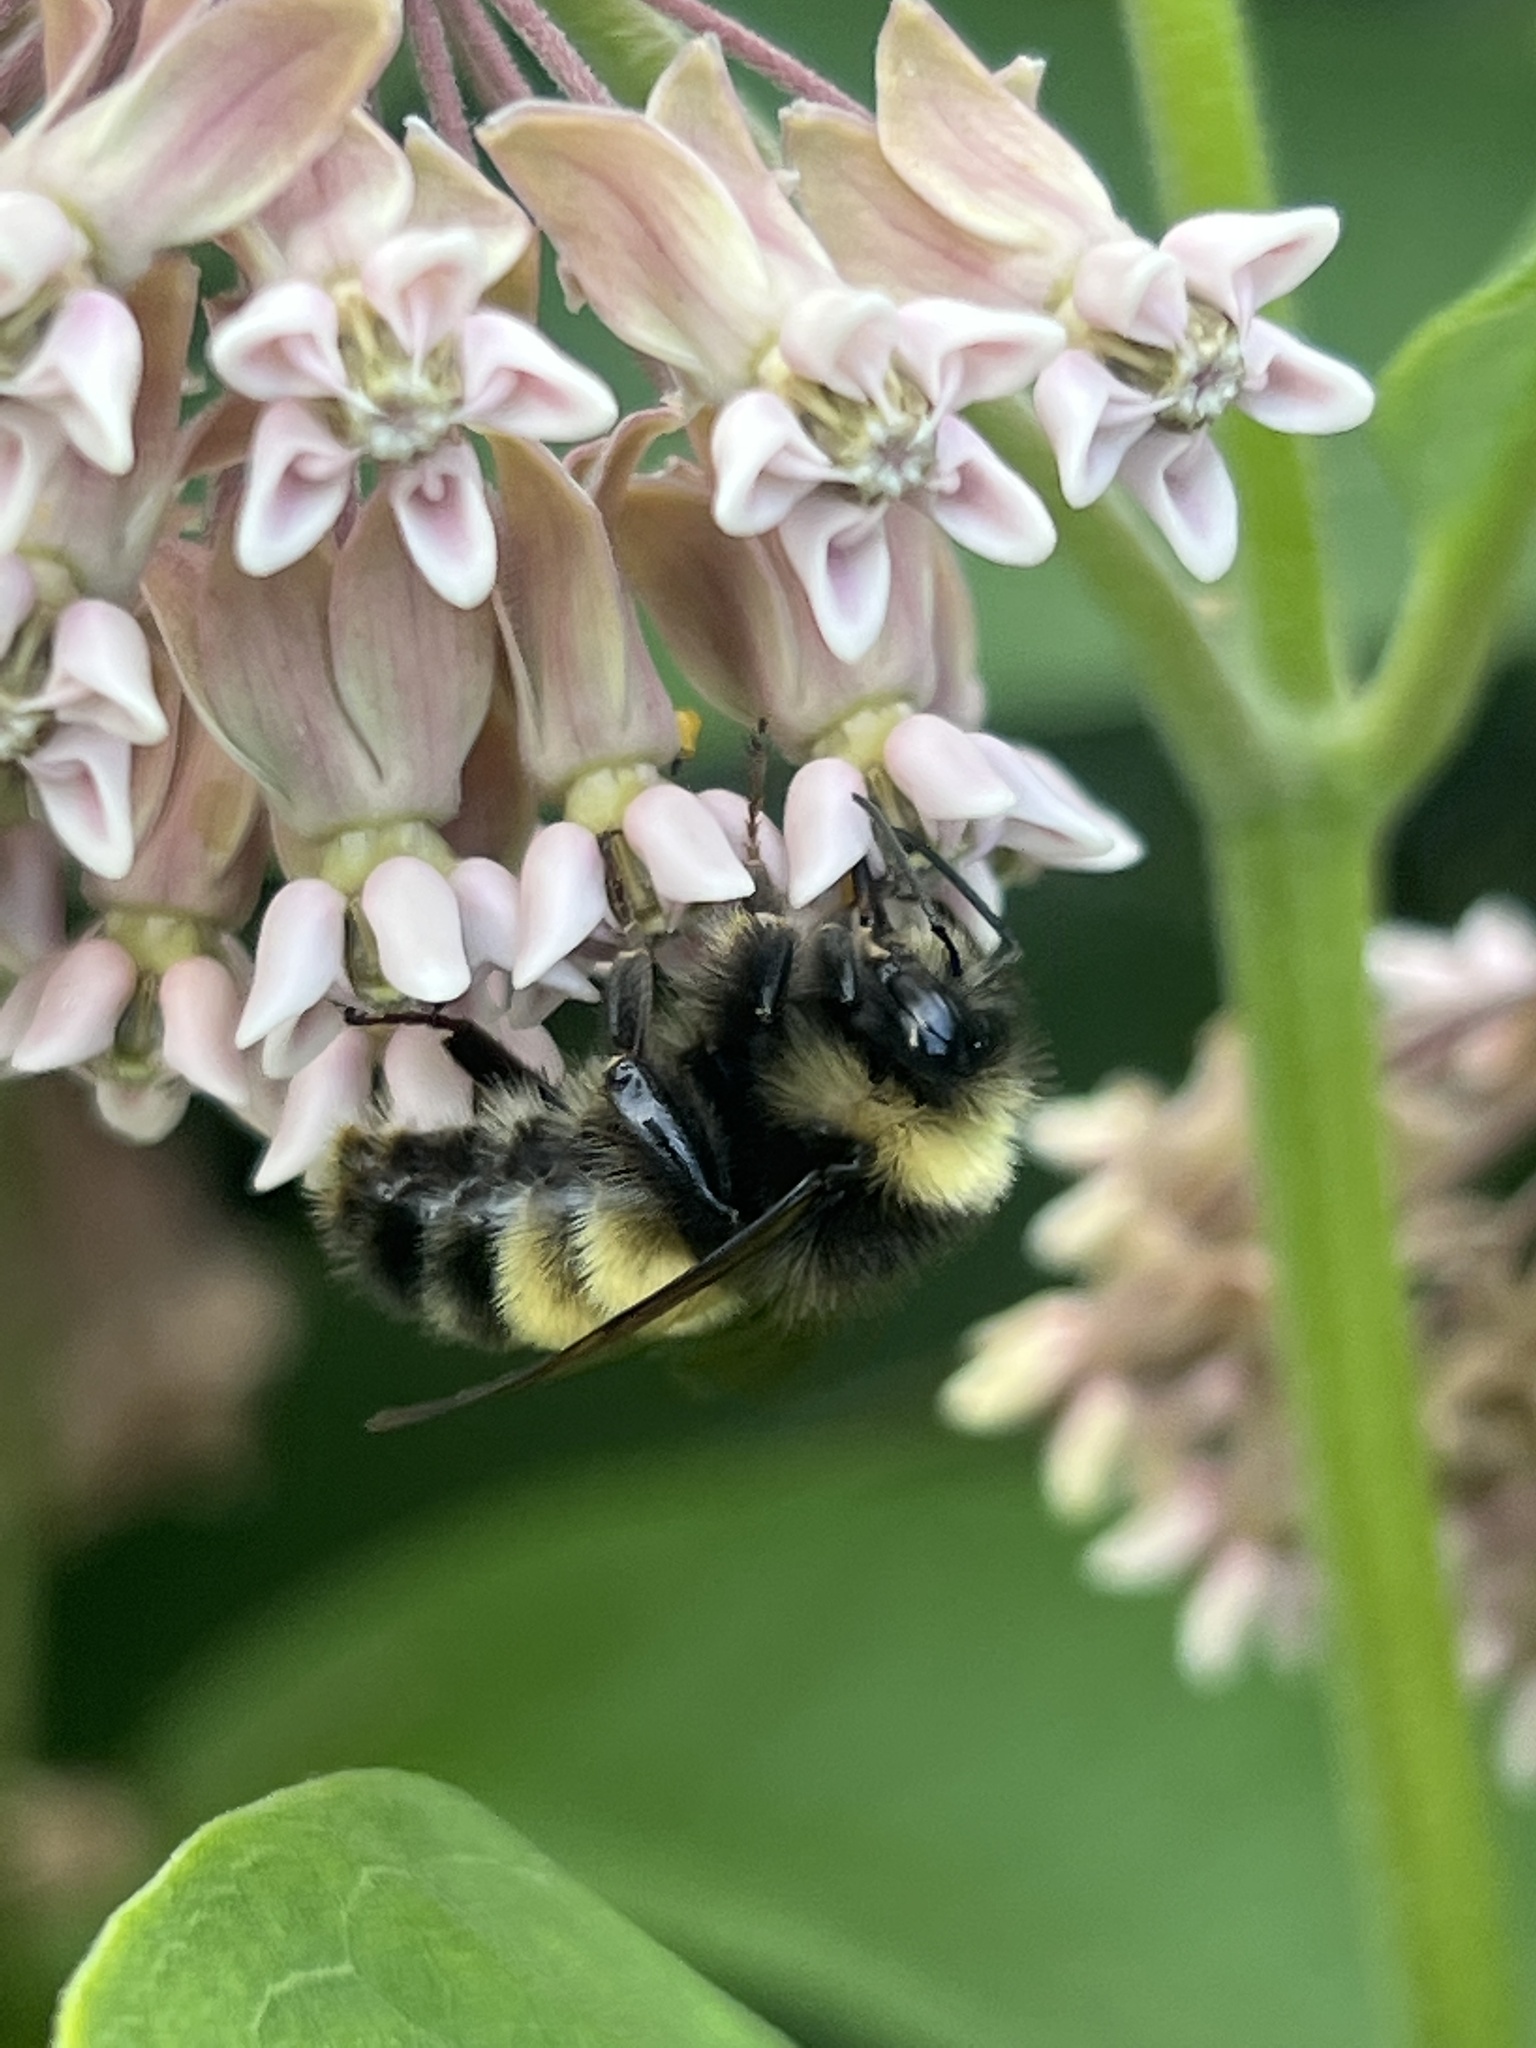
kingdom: Animalia
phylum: Arthropoda
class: Insecta
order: Hymenoptera
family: Apidae
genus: Bombus
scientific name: Bombus terricola
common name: Yellow-banded bumble bee
